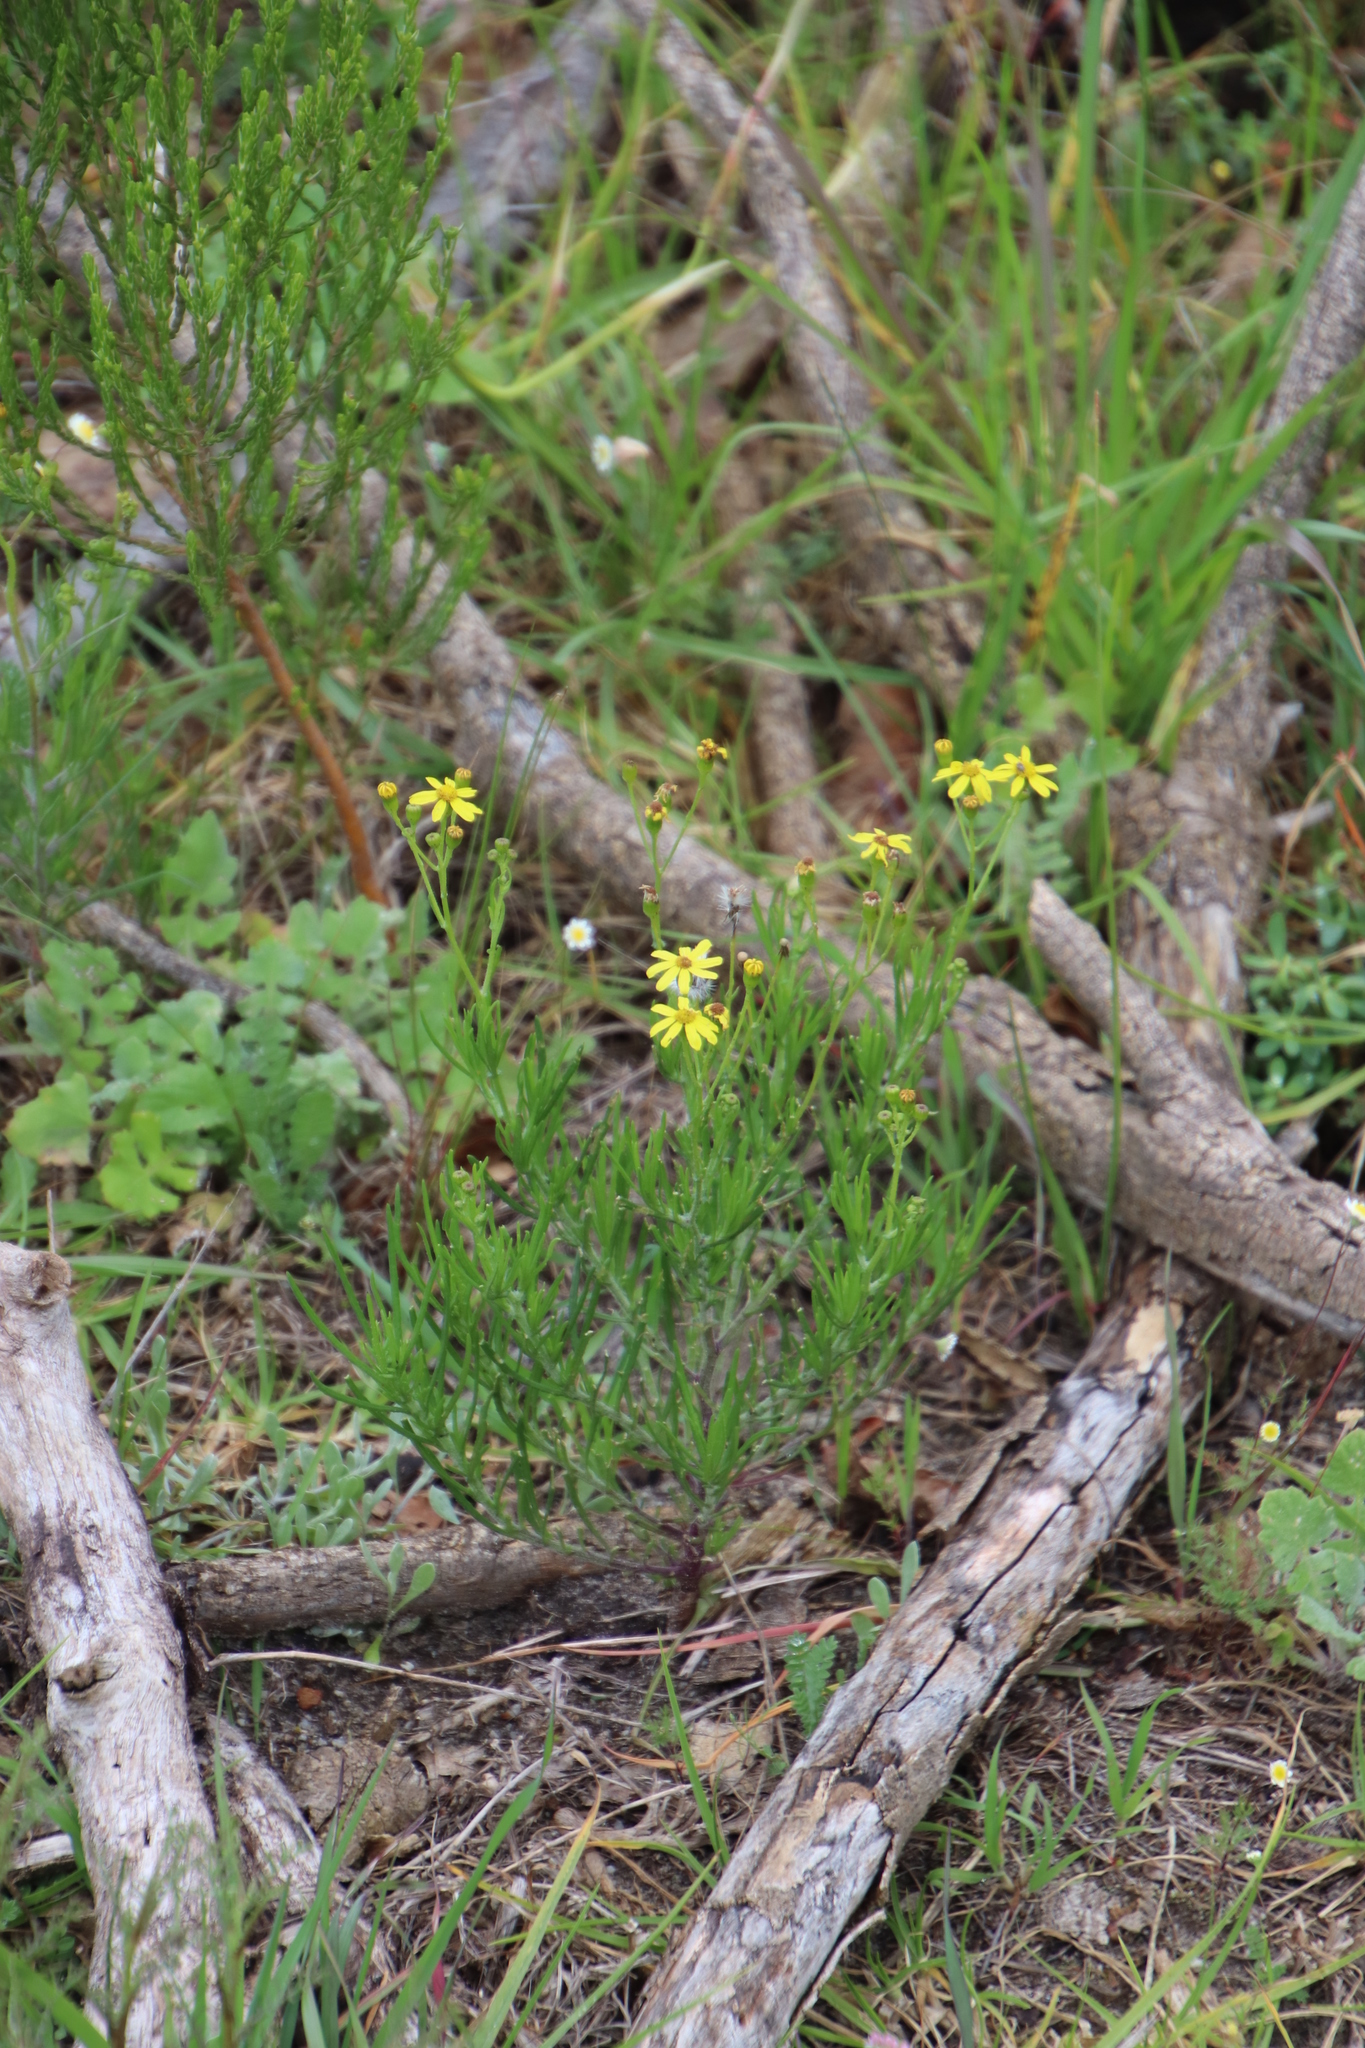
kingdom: Plantae
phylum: Tracheophyta
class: Magnoliopsida
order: Asterales
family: Asteraceae
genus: Senecio
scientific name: Senecio burchellii
